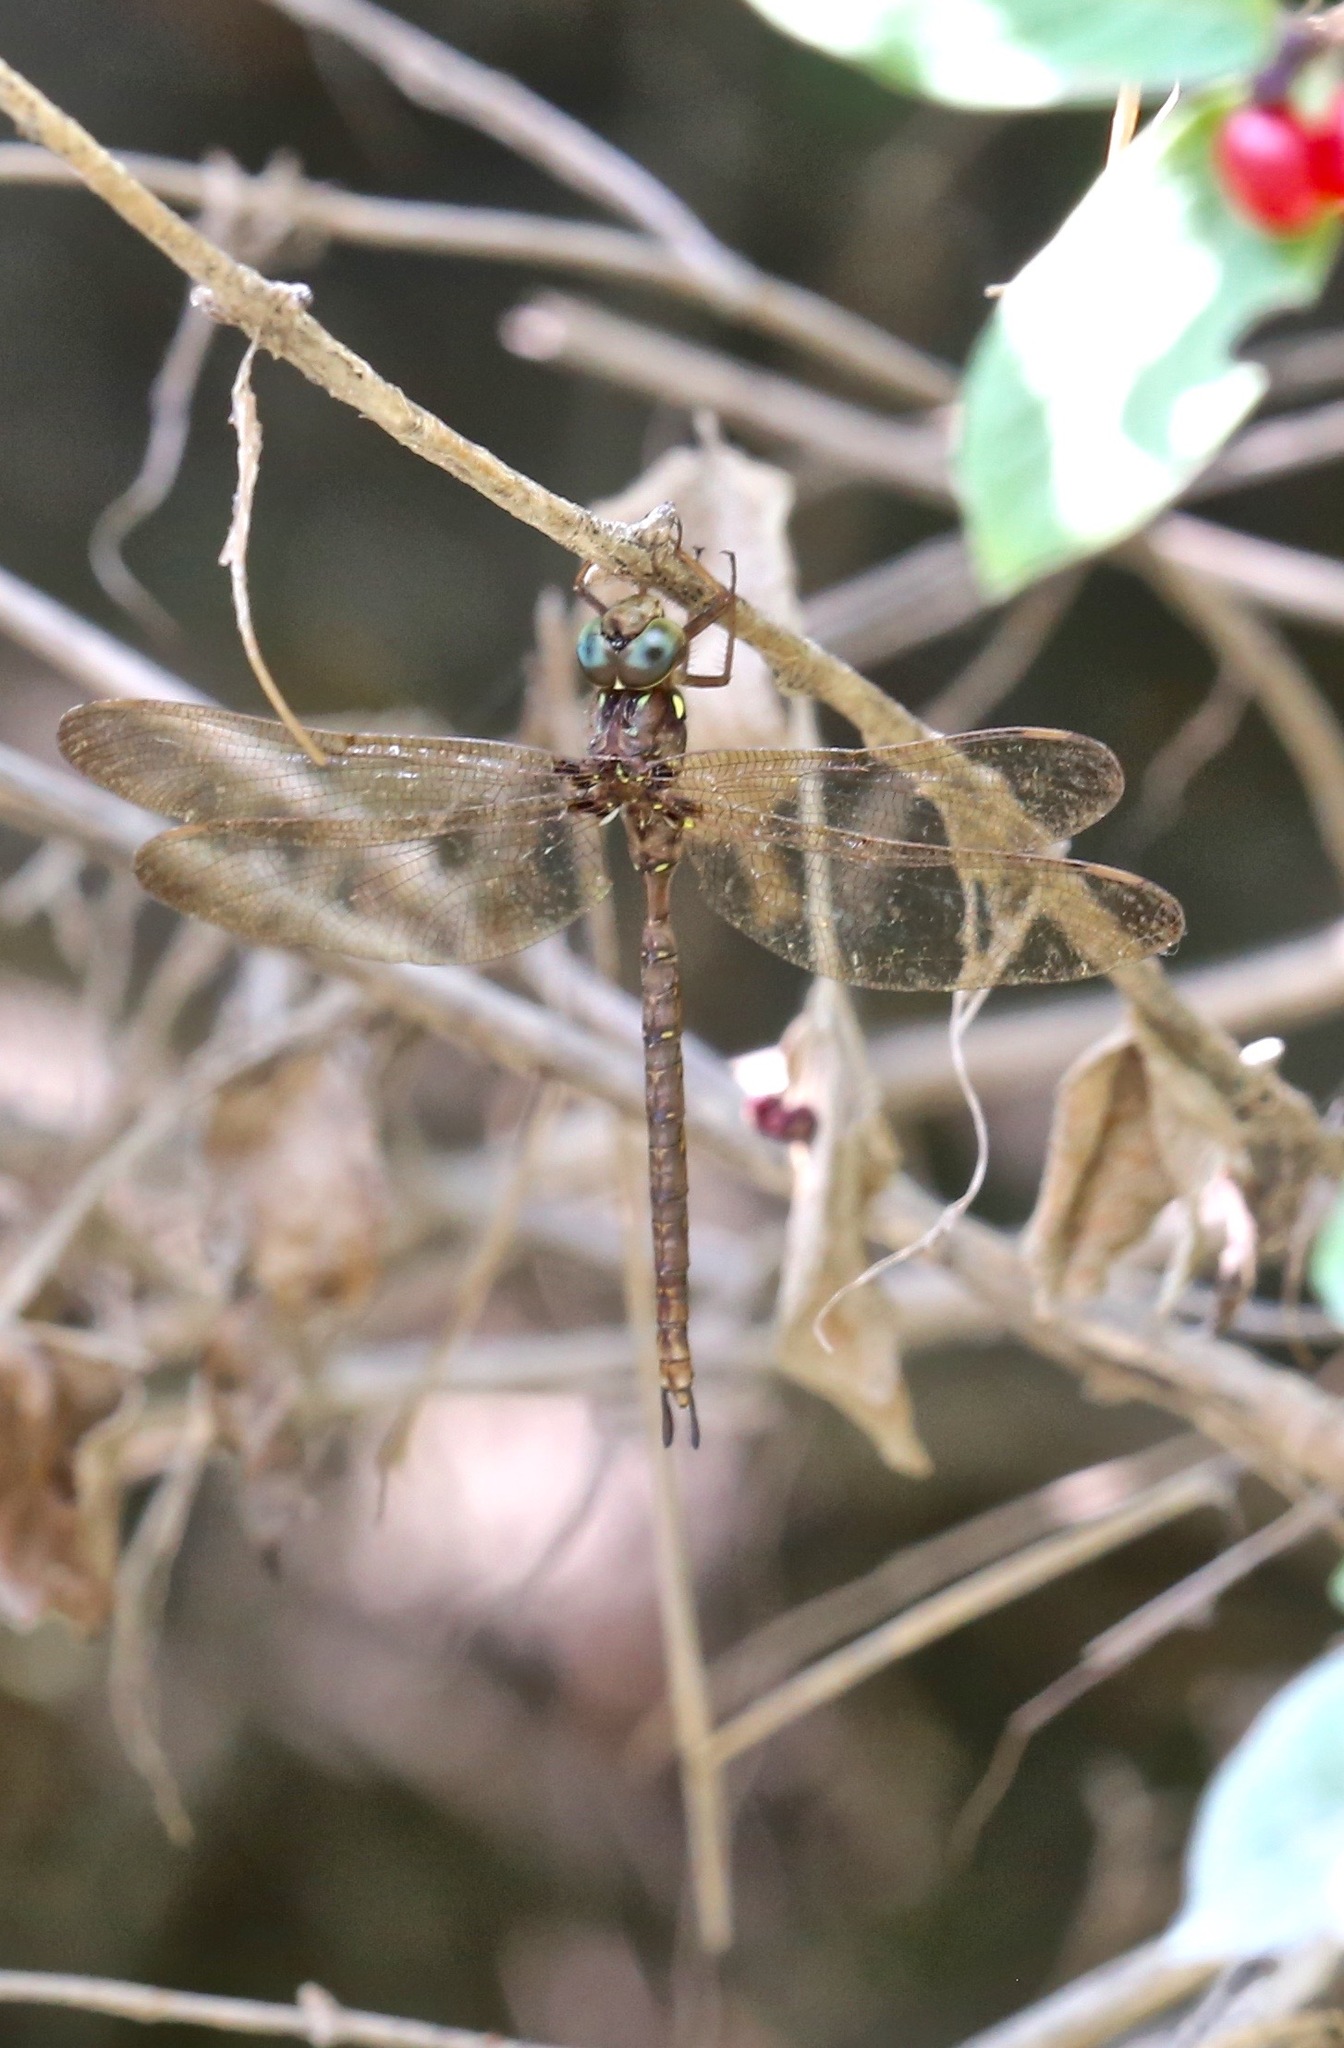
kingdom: Animalia
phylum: Arthropoda
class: Insecta
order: Odonata
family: Aeshnidae
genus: Boyeria
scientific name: Boyeria vinosa
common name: Fawn darner
